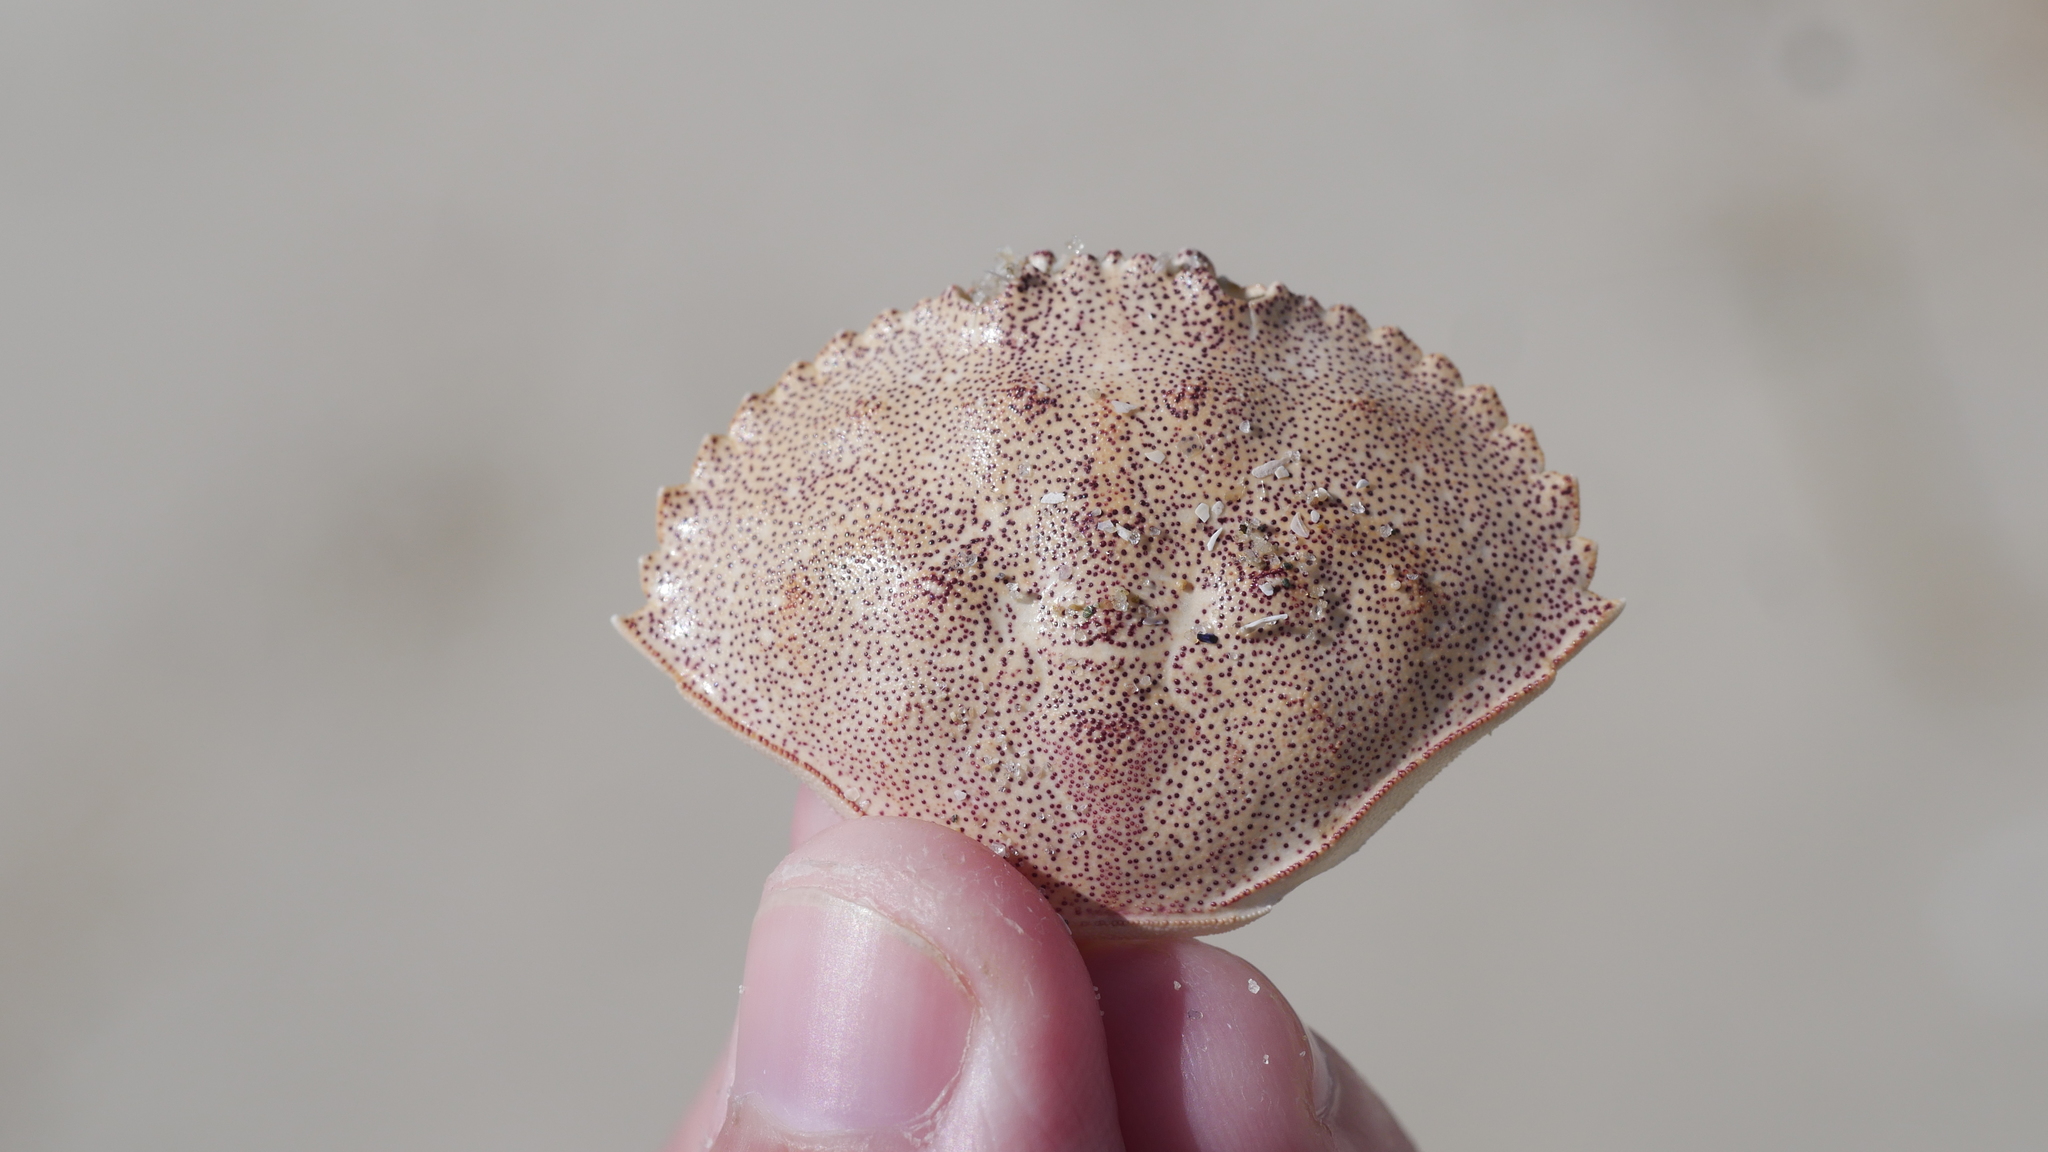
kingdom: Animalia
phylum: Arthropoda
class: Malacostraca
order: Decapoda
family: Cancridae
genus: Cancer
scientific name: Cancer irroratus
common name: Atlantic rock crab
